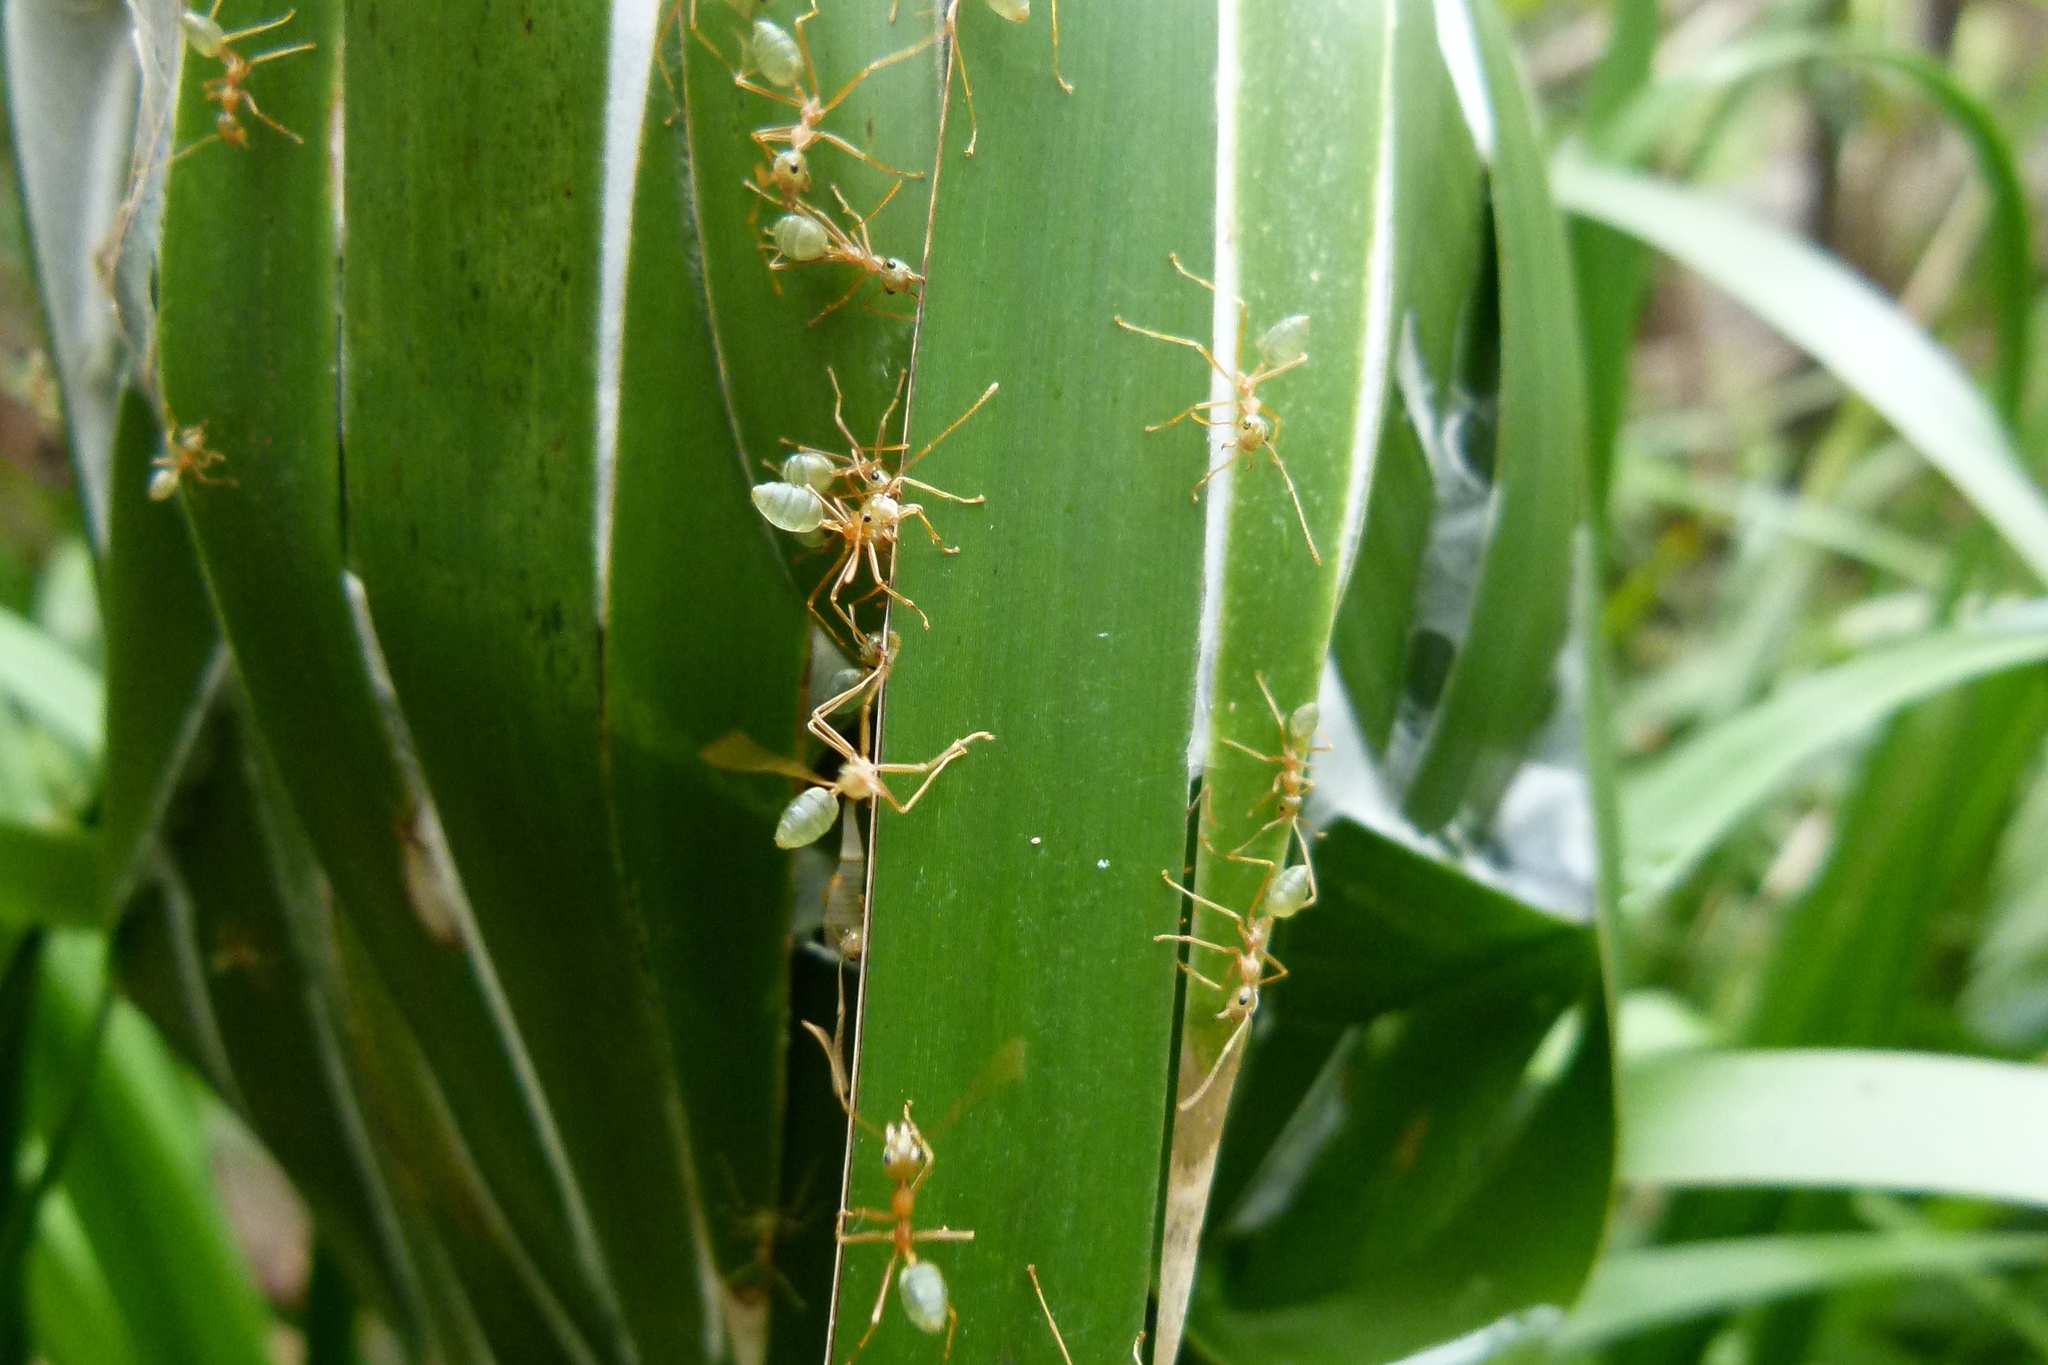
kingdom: Animalia
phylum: Arthropoda
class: Insecta
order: Hymenoptera
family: Formicidae
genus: Oecophylla
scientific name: Oecophylla smaragdina
